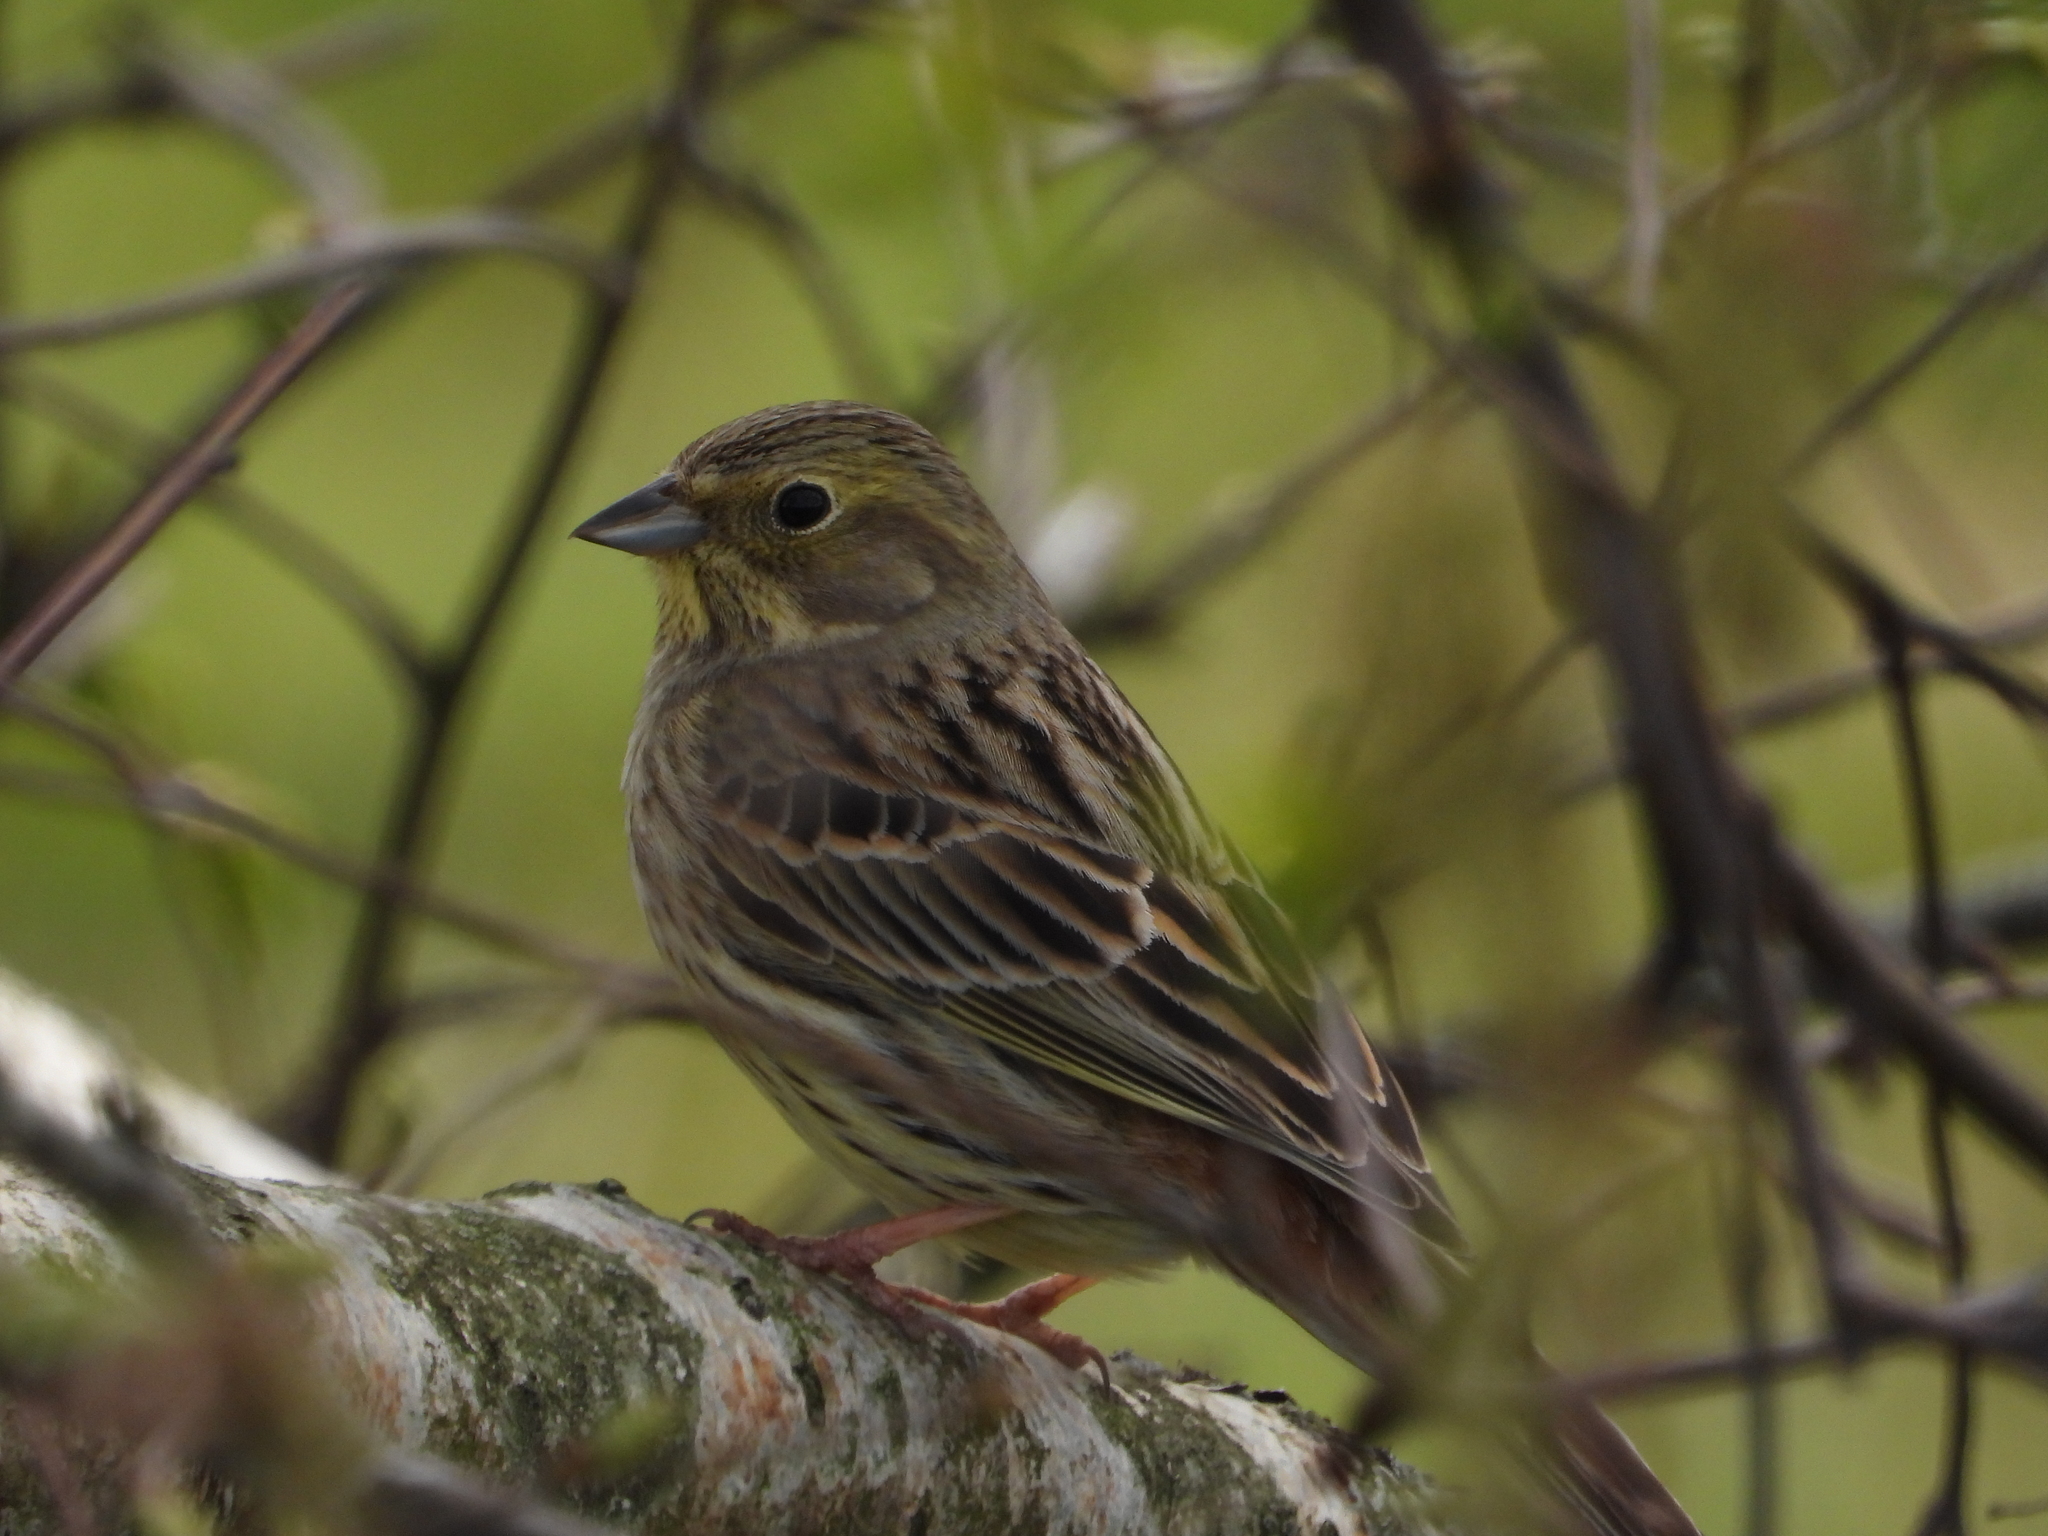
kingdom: Animalia
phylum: Chordata
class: Aves
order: Passeriformes
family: Emberizidae
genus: Emberiza
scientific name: Emberiza citrinella
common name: Yellowhammer
